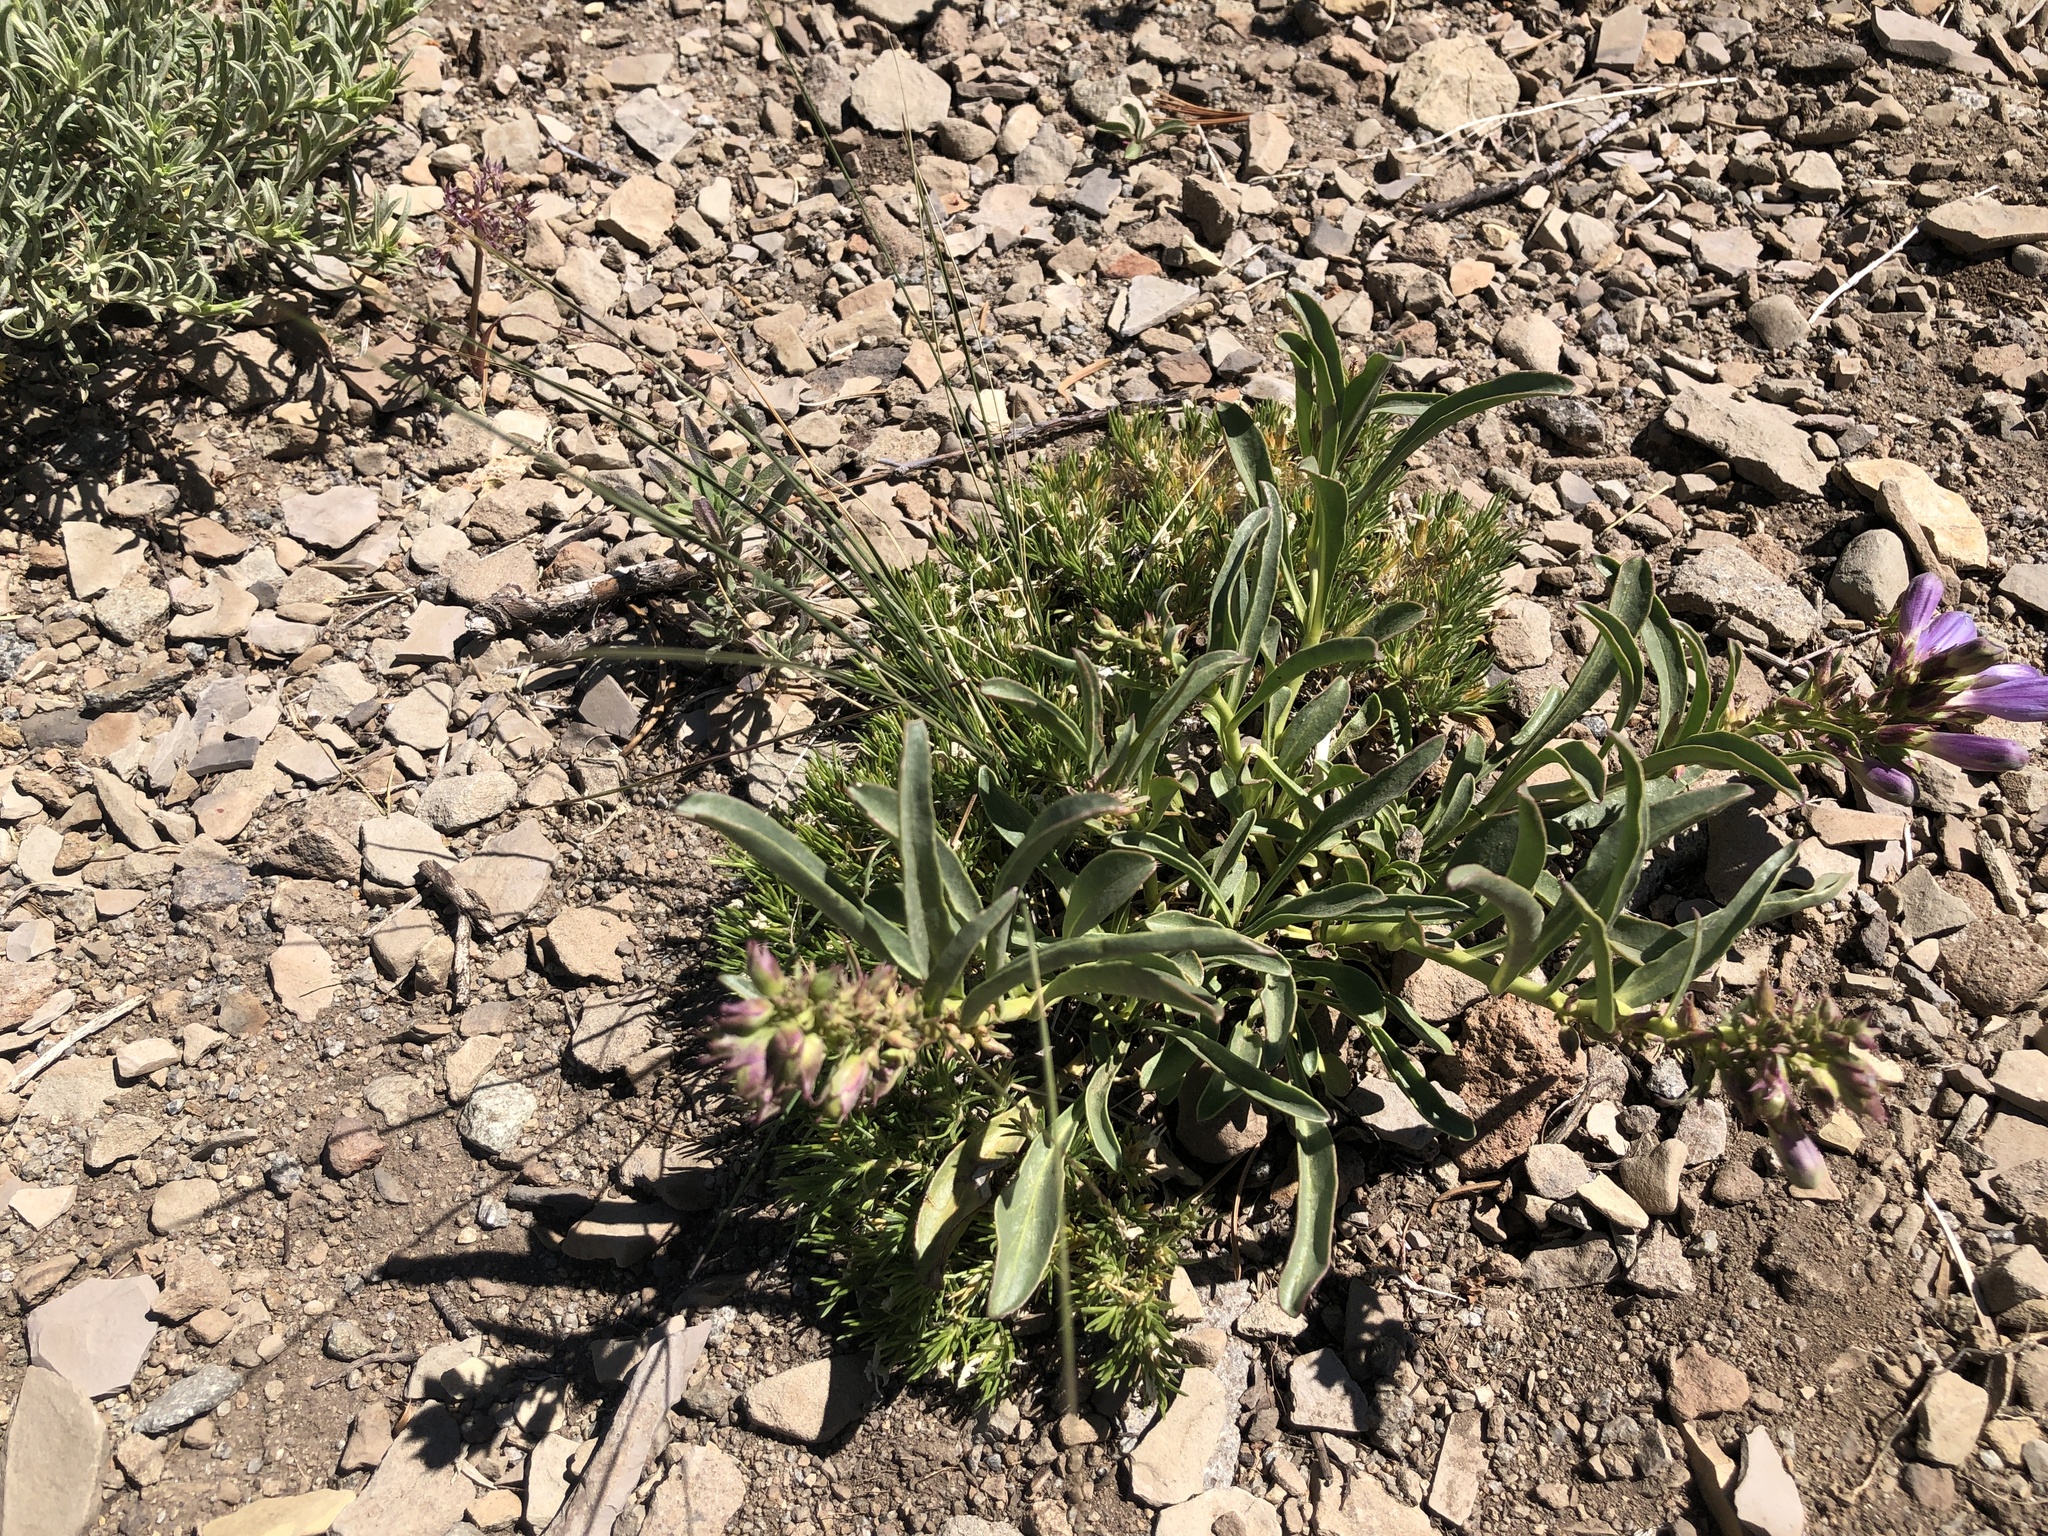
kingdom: Plantae
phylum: Tracheophyta
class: Magnoliopsida
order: Lamiales
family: Plantaginaceae
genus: Penstemon
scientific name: Penstemon speciosus
